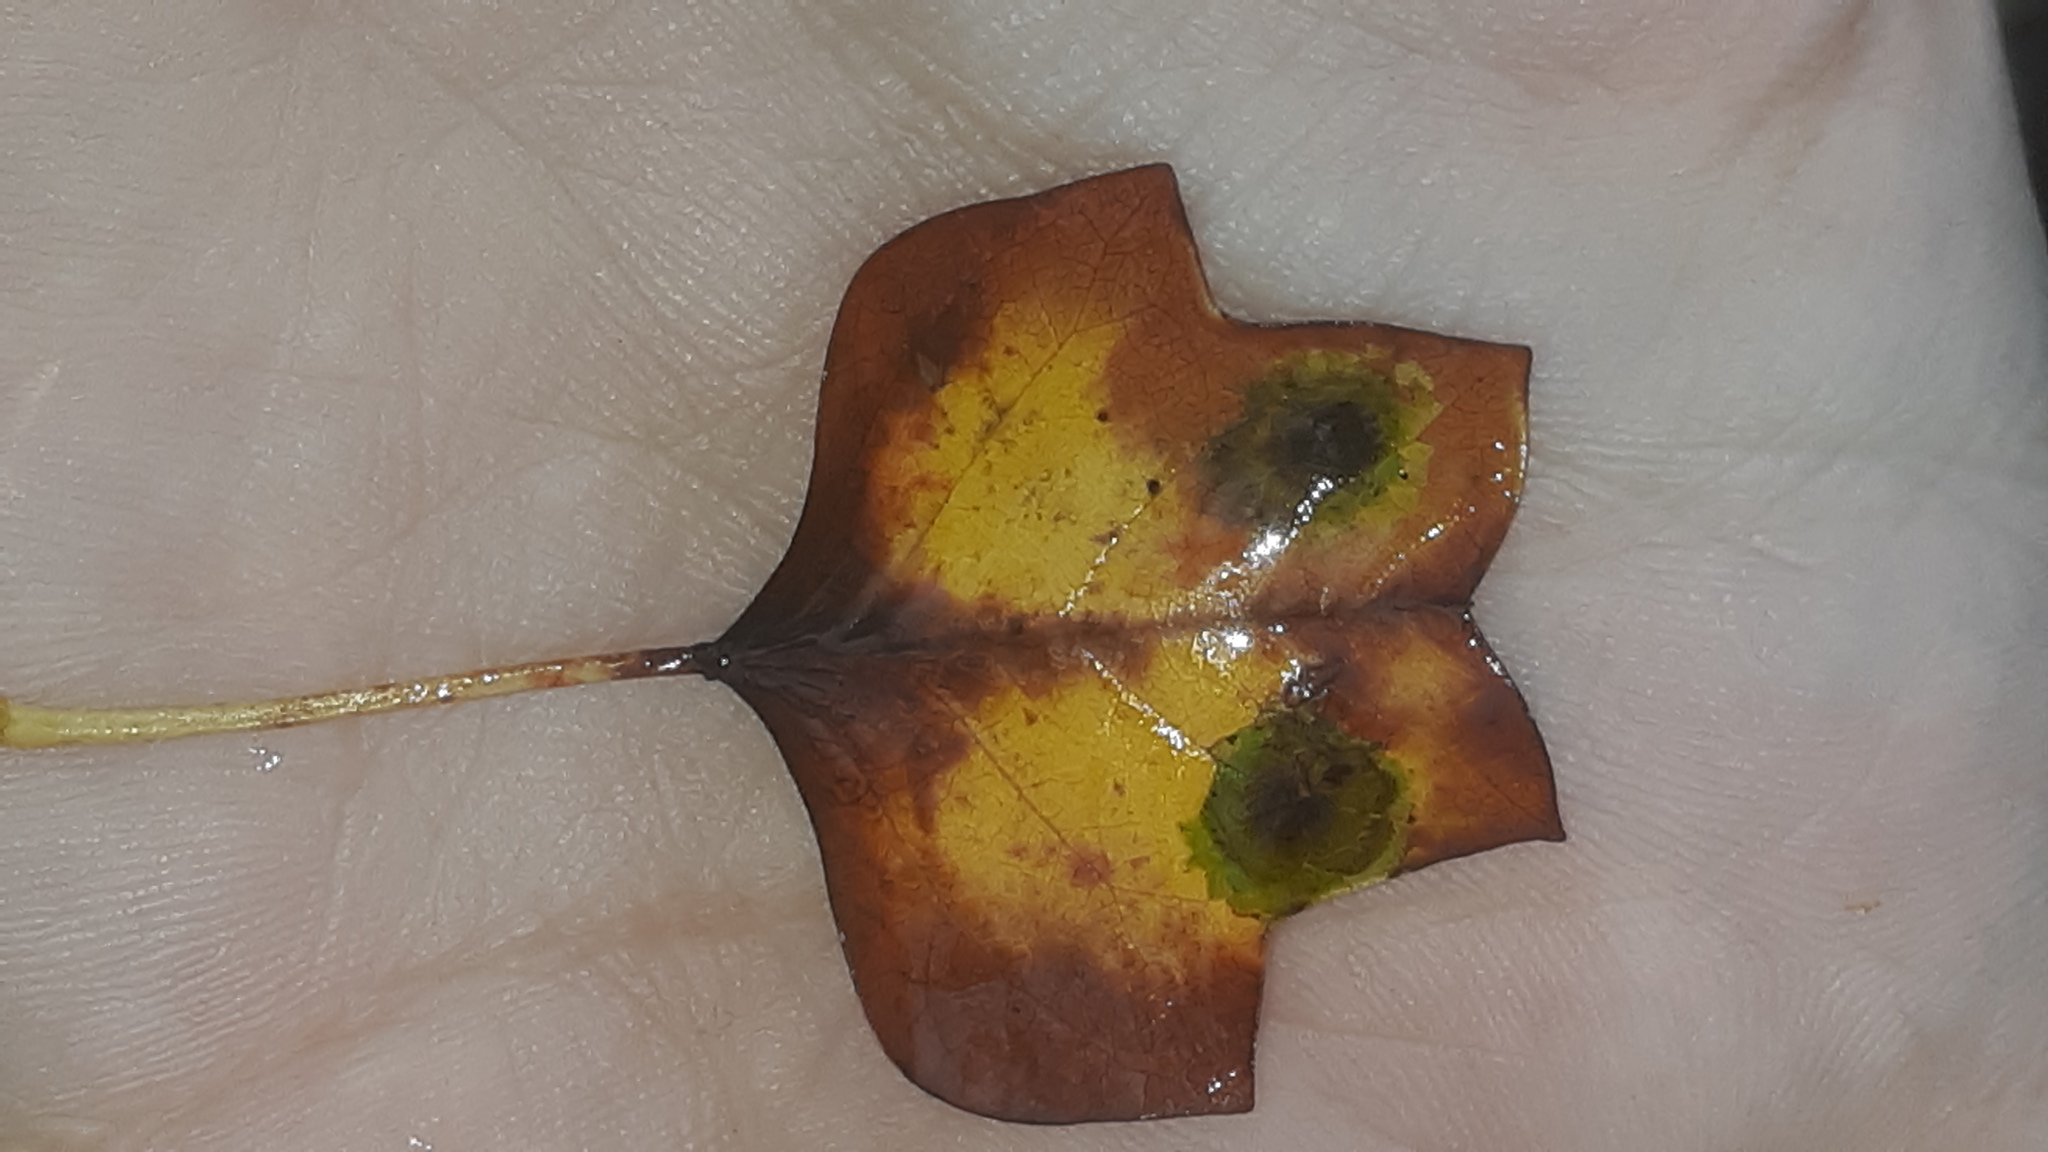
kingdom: Plantae
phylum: Tracheophyta
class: Magnoliopsida
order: Magnoliales
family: Magnoliaceae
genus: Liriodendron
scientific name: Liriodendron tulipifera
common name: Tulip tree
